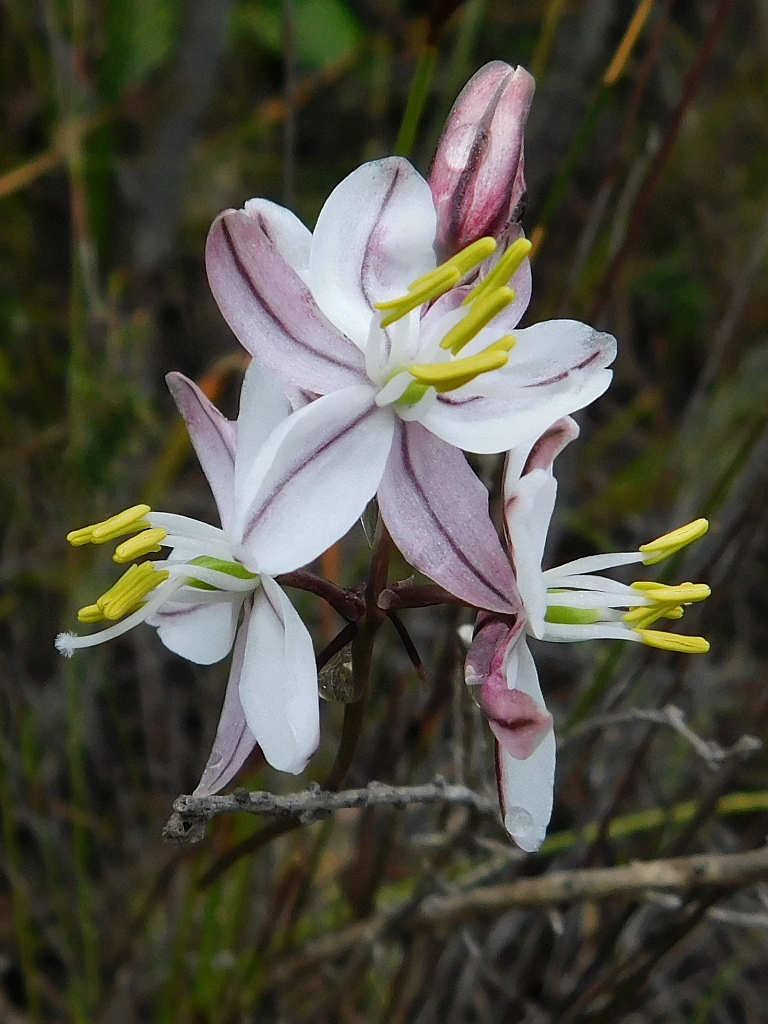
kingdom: Plantae
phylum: Tracheophyta
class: Liliopsida
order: Asparagales
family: Asparagaceae
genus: Drimia
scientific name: Drimia exuviata
